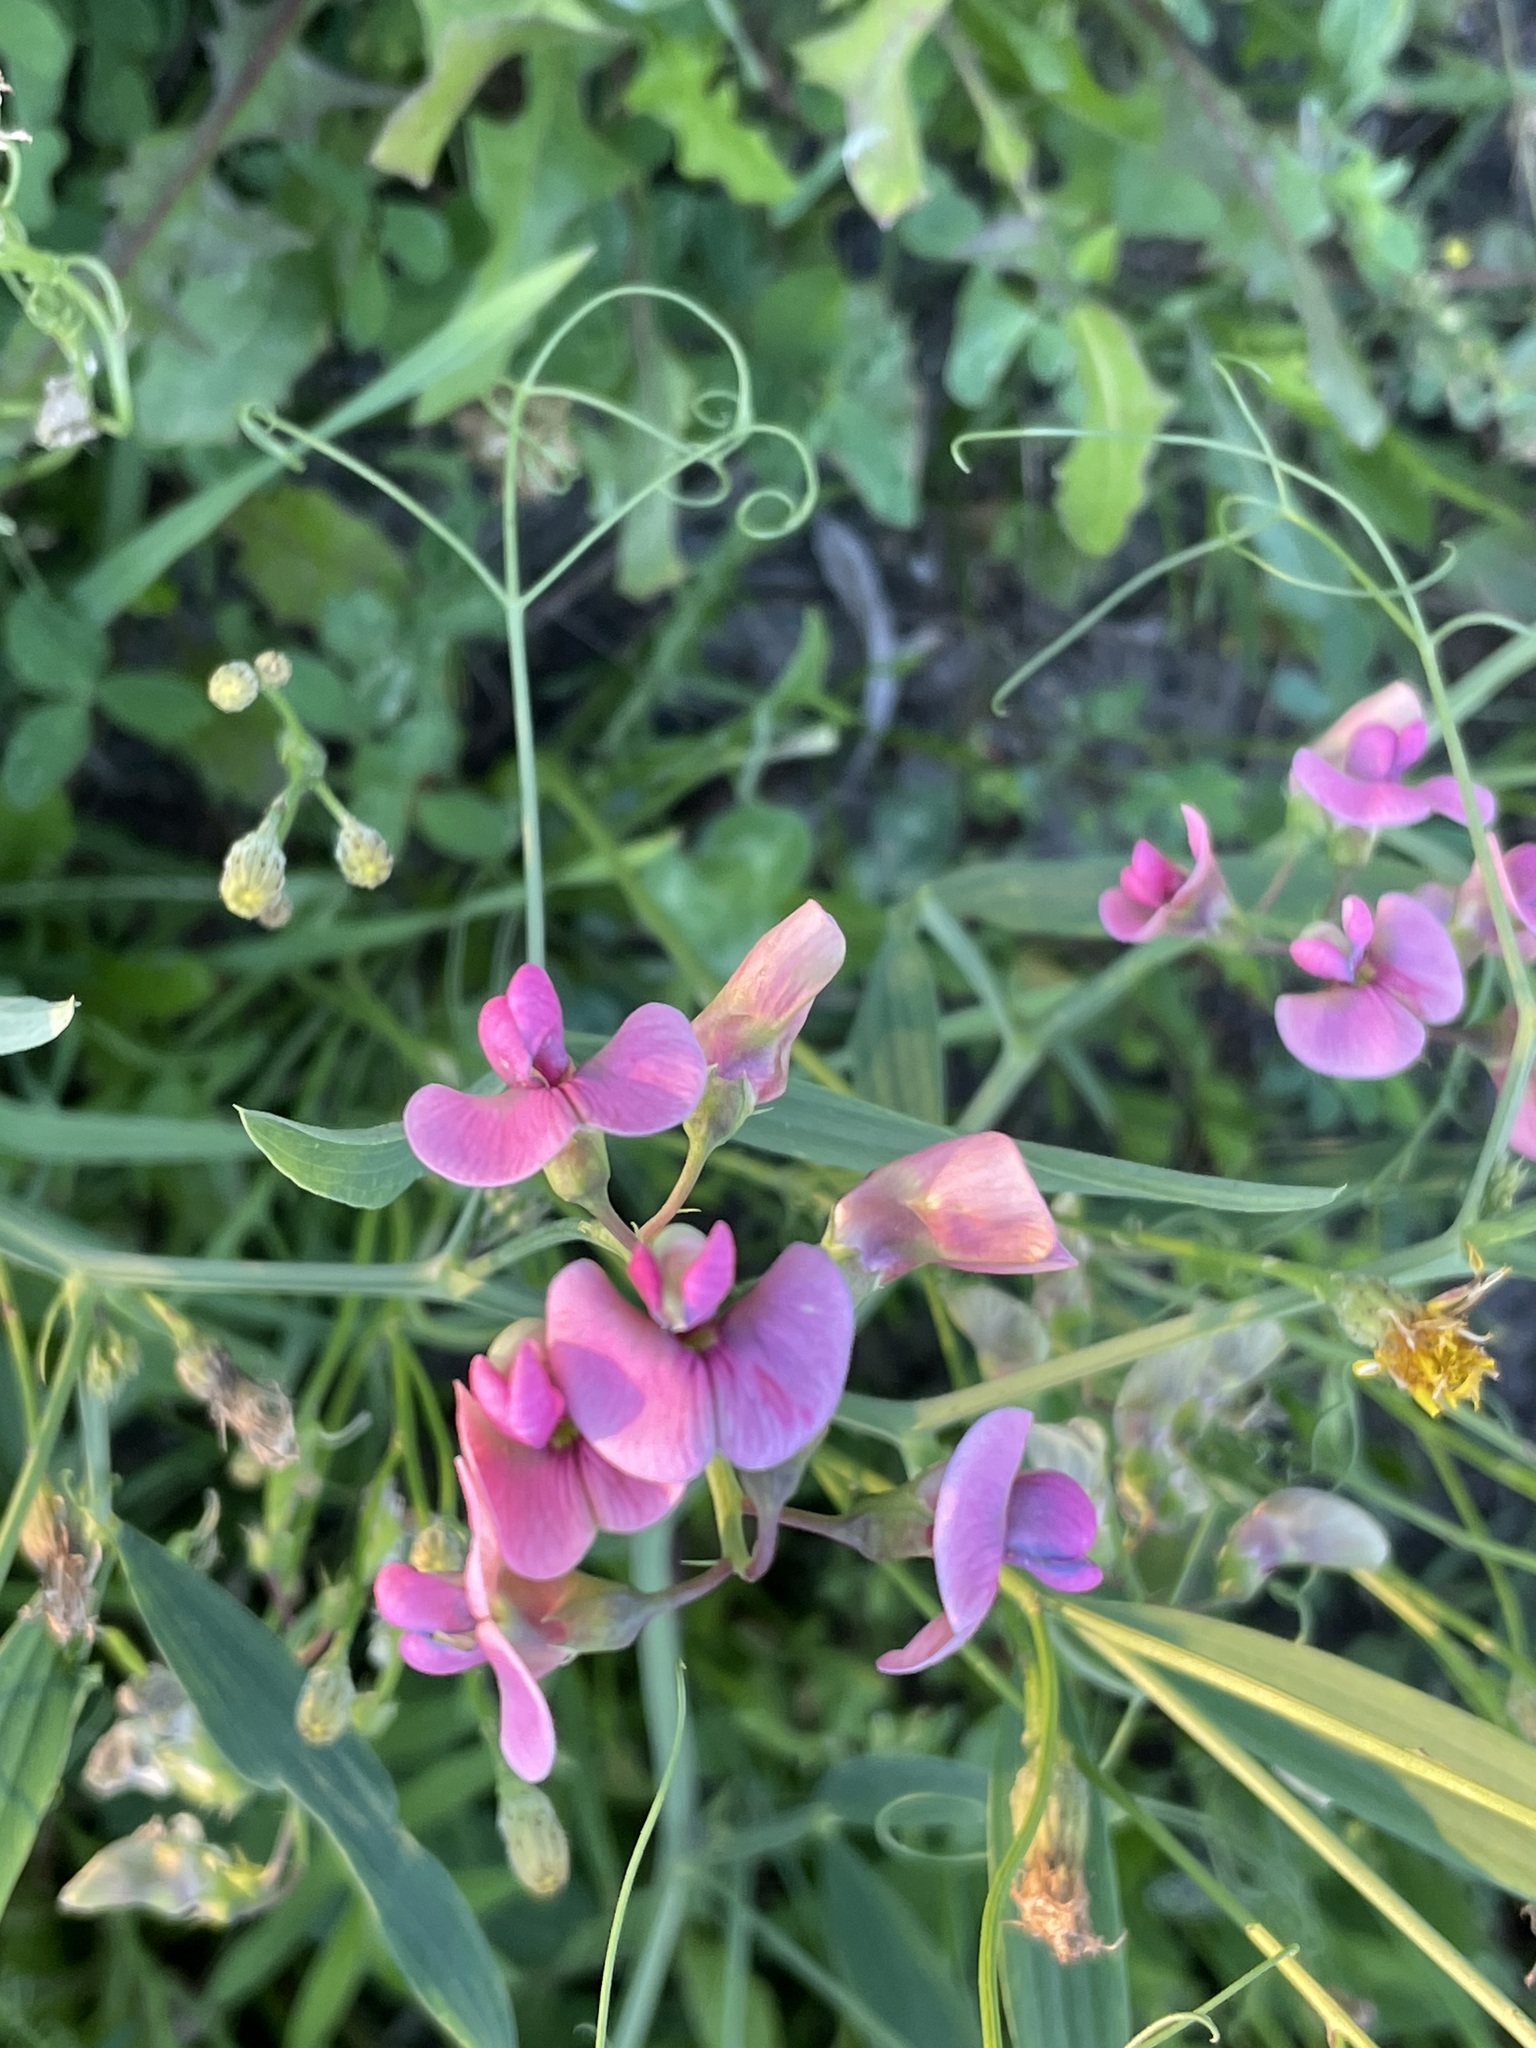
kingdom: Plantae
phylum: Tracheophyta
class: Magnoliopsida
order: Fabales
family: Fabaceae
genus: Lathyrus
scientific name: Lathyrus sylvestris
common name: Flat pea
